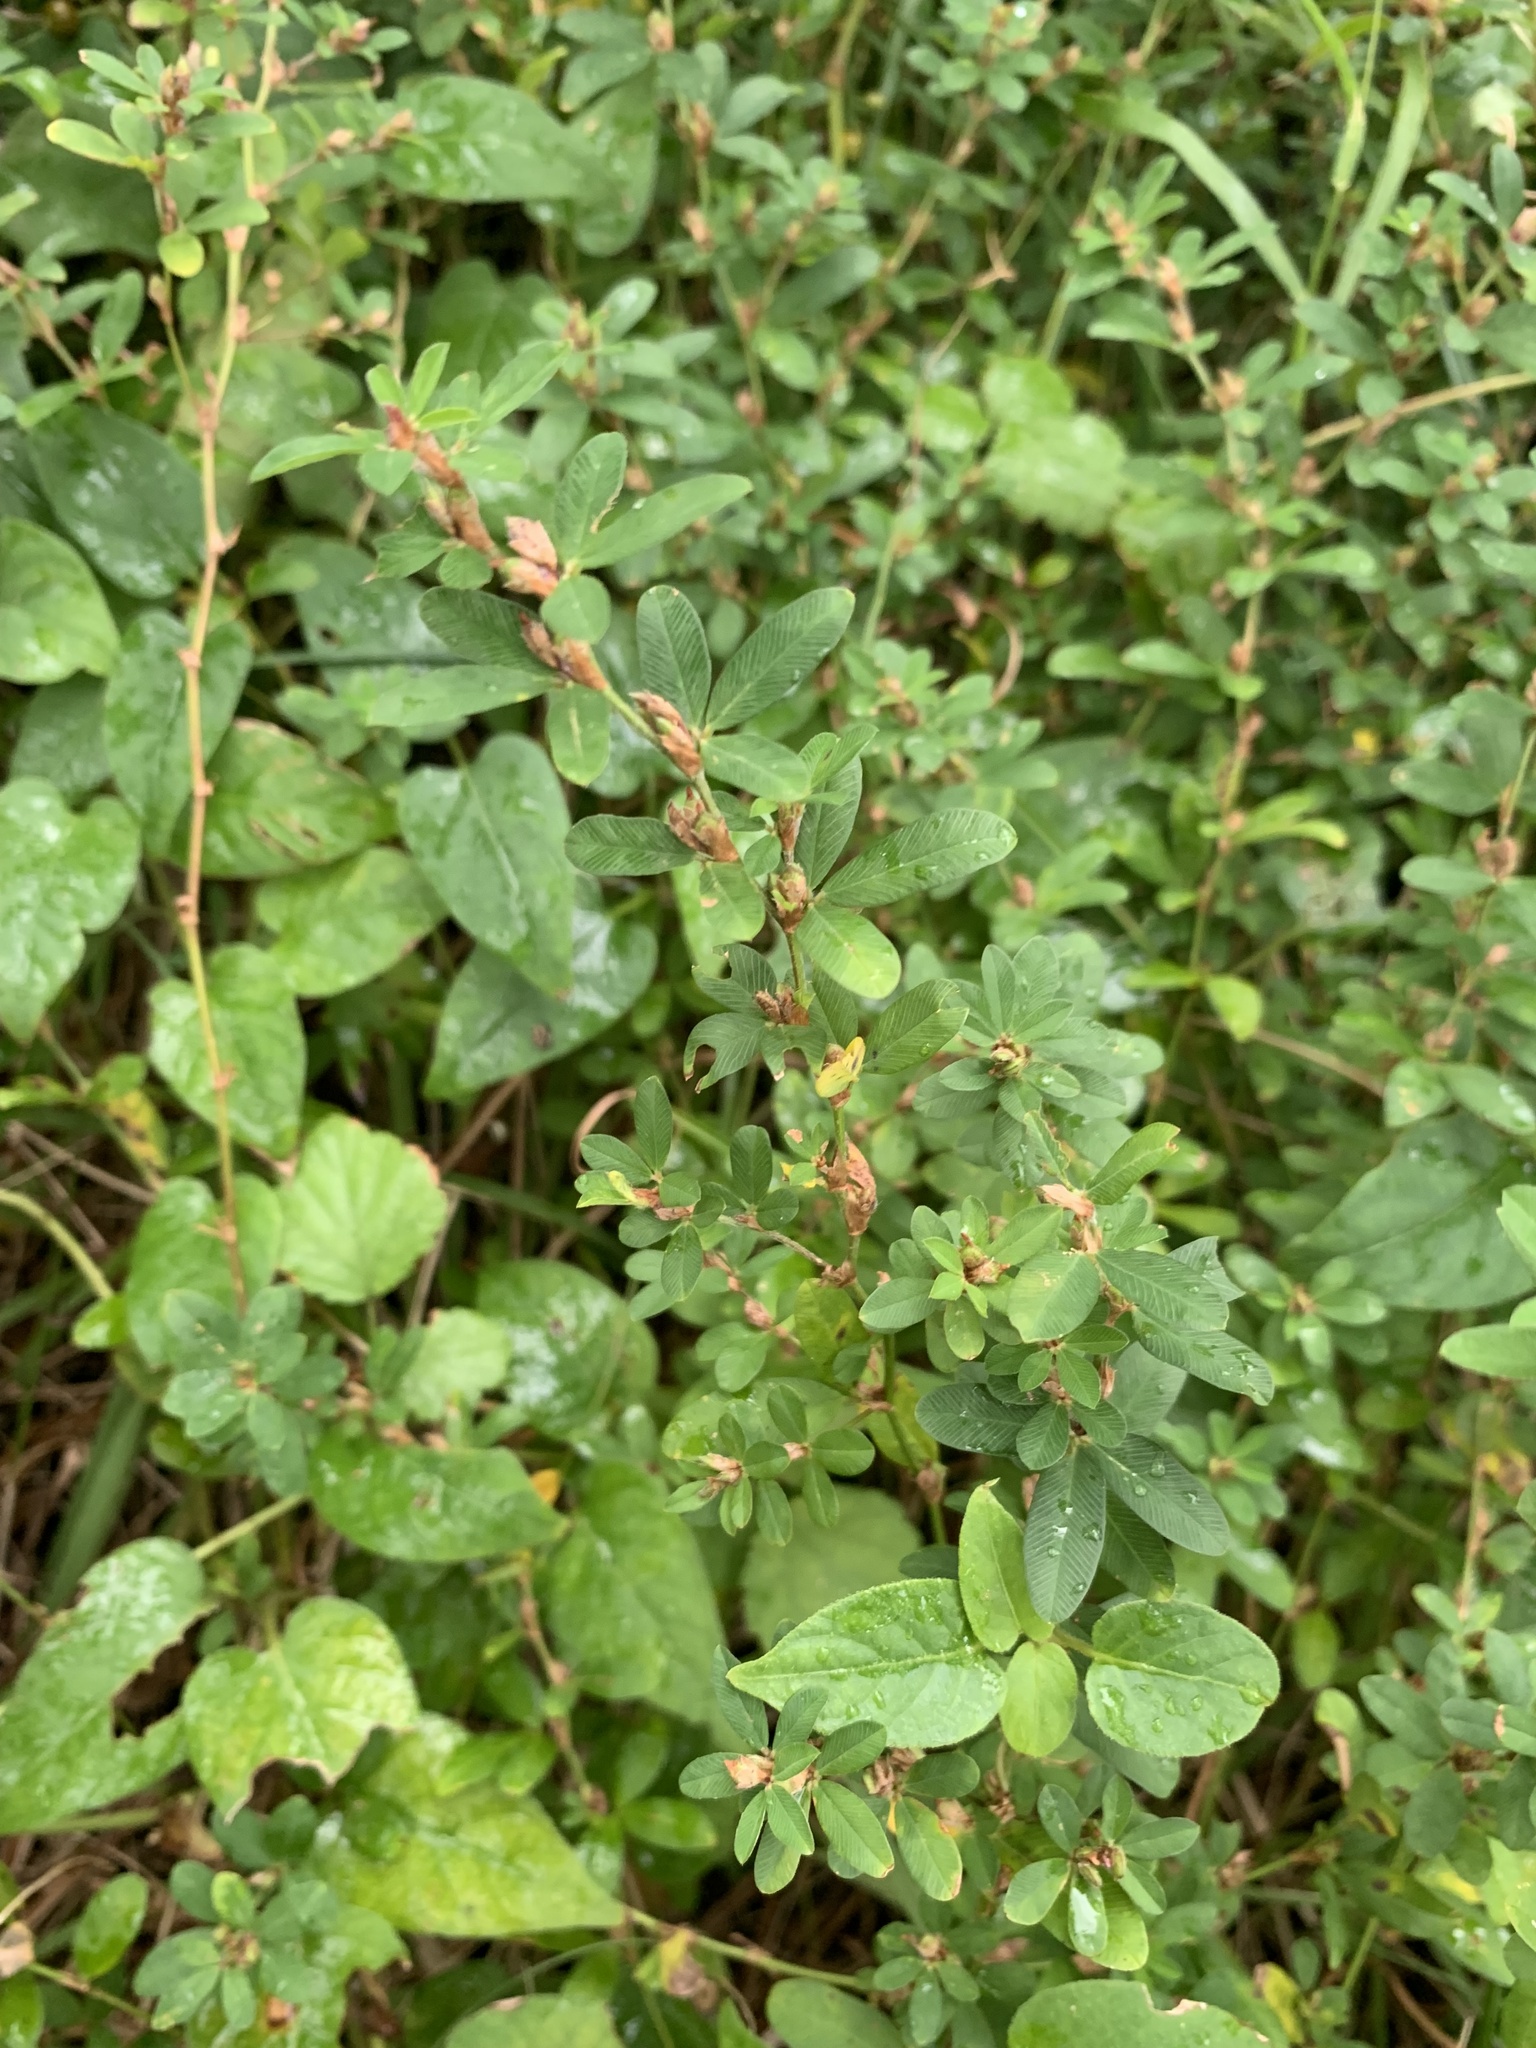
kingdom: Plantae
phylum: Tracheophyta
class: Magnoliopsida
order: Fabales
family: Fabaceae
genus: Kummerowia
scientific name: Kummerowia striata
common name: Japanese clover
